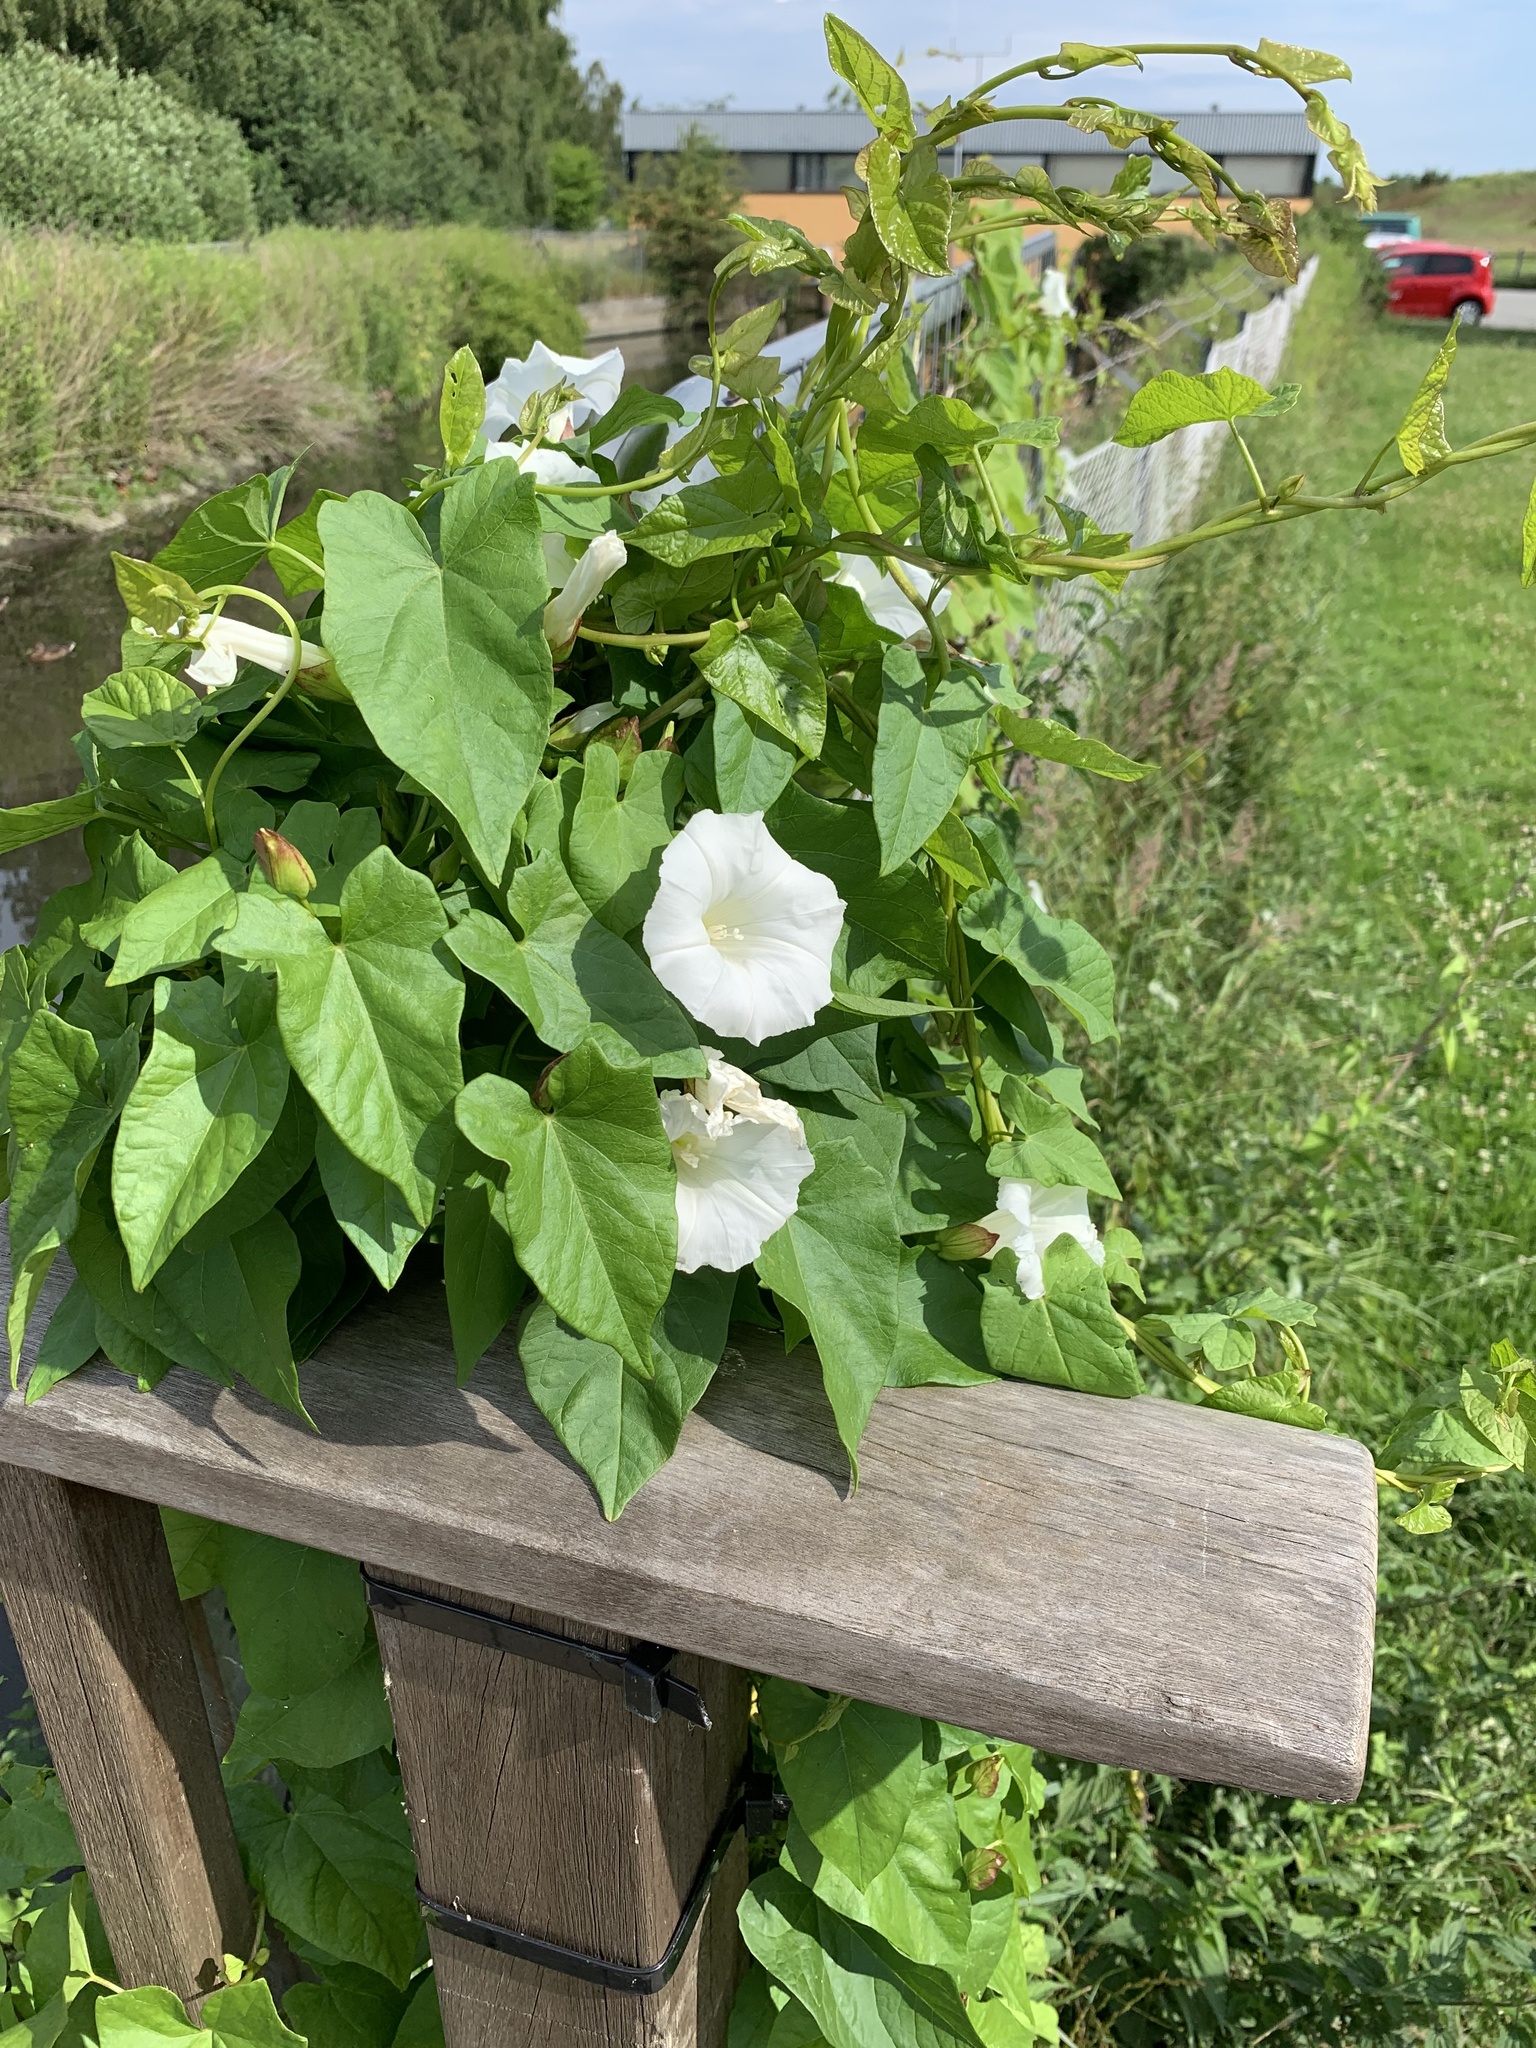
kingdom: Plantae
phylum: Tracheophyta
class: Magnoliopsida
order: Solanales
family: Convolvulaceae
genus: Calystegia
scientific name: Calystegia sepium
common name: Hedge bindweed
